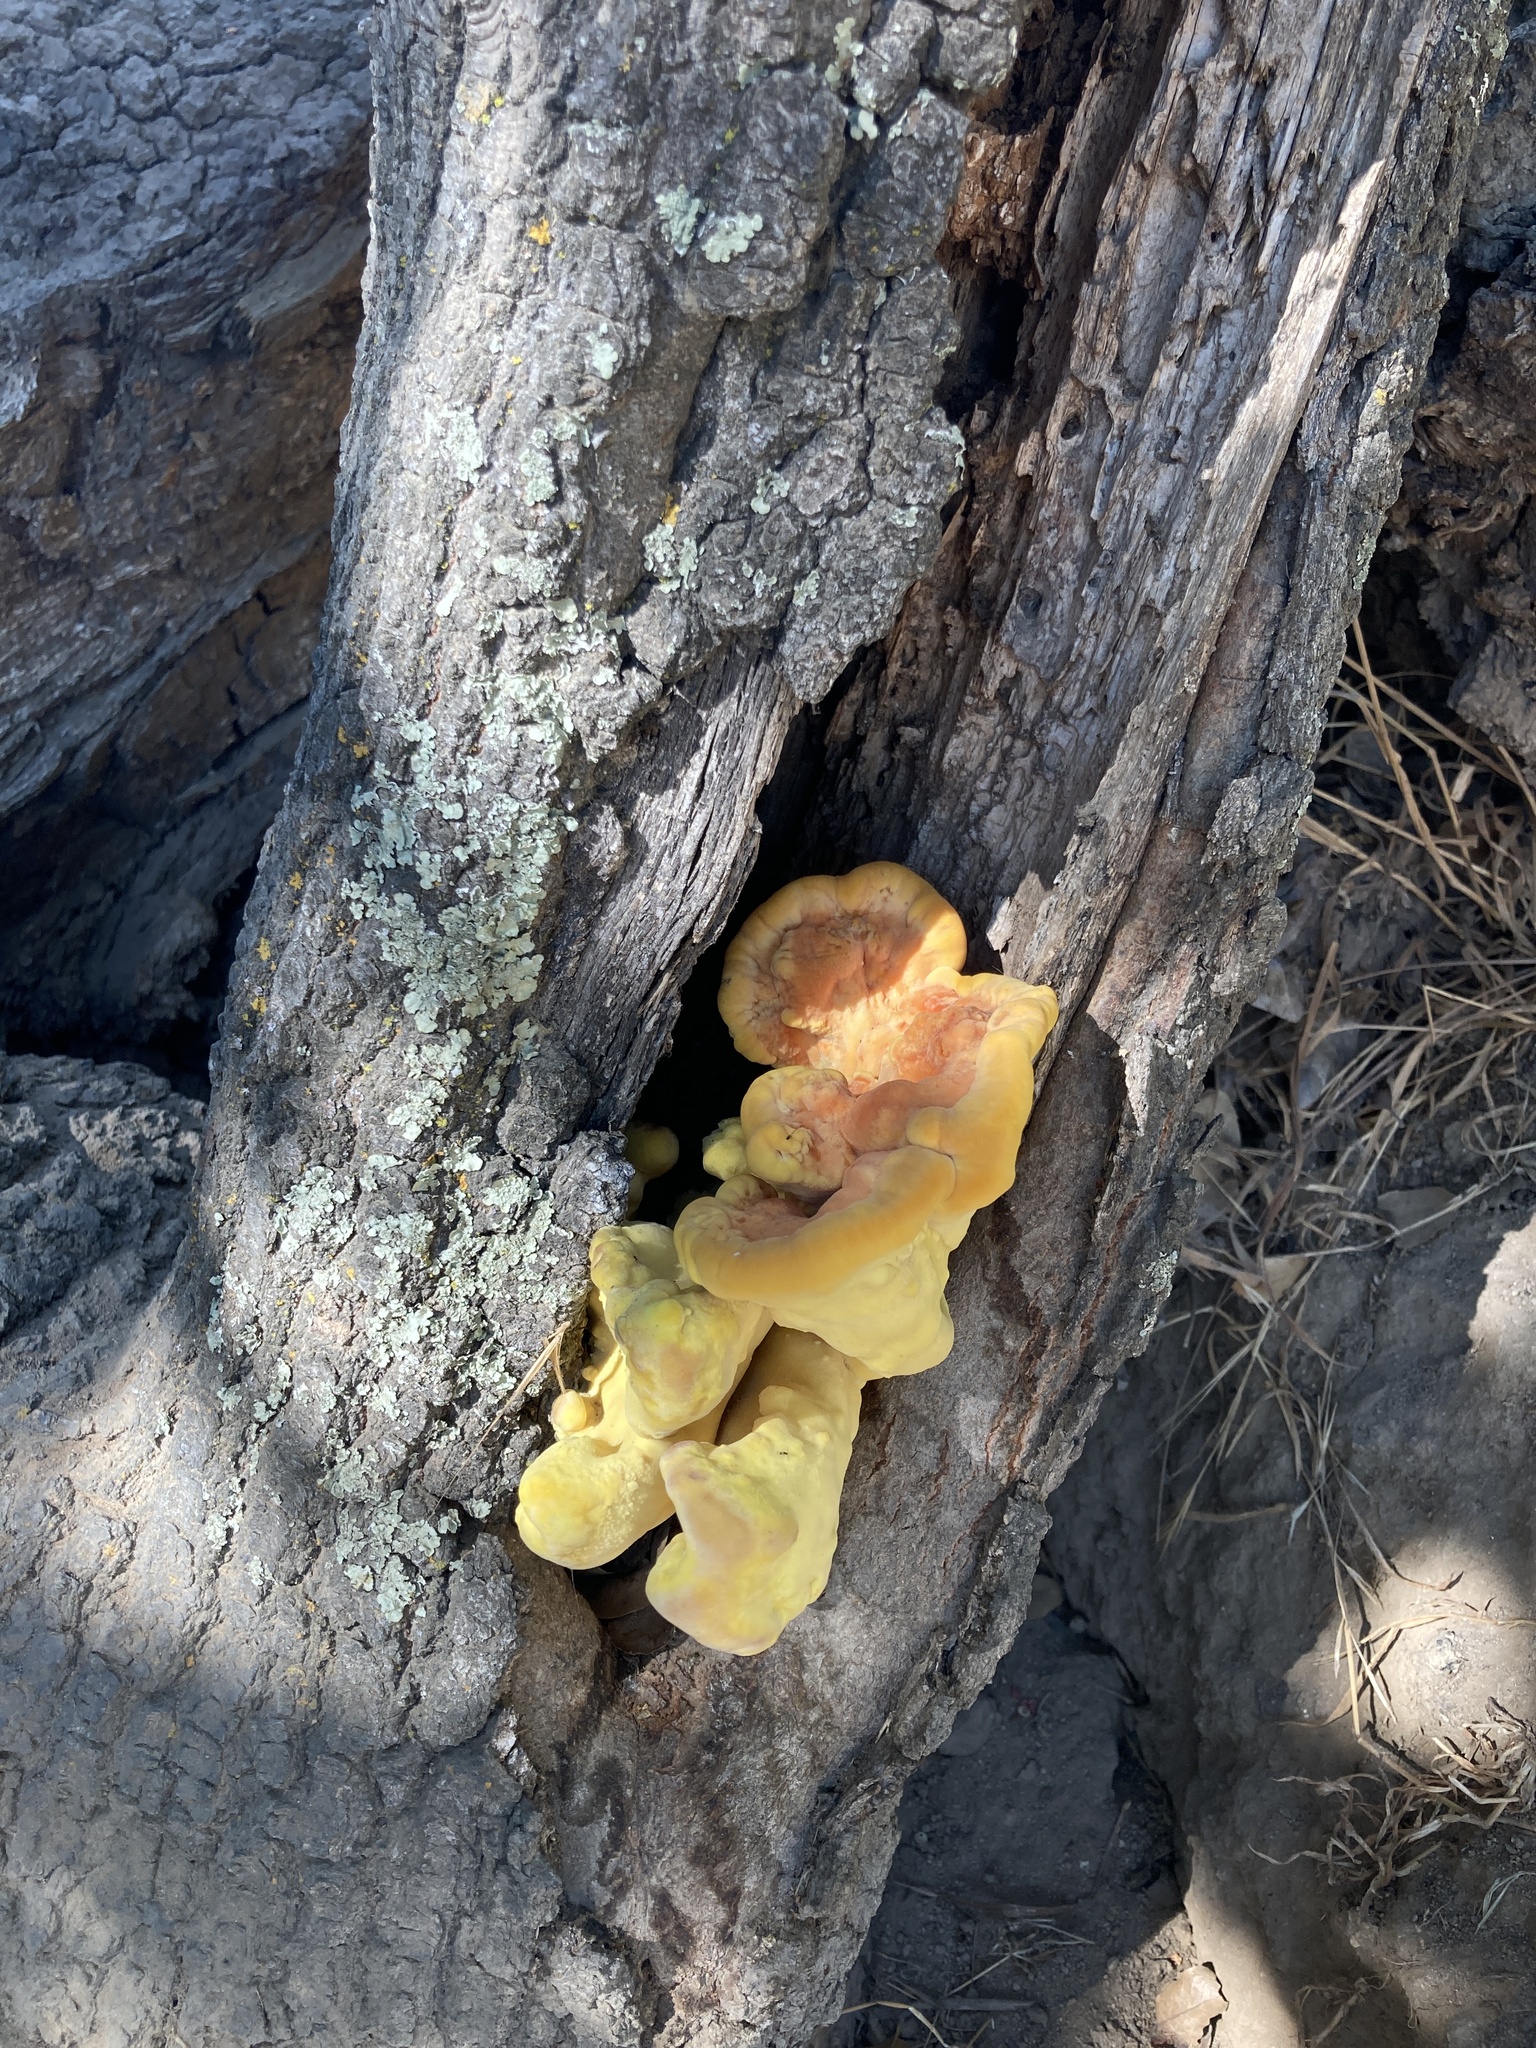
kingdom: Fungi
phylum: Basidiomycota
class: Agaricomycetes
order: Polyporales
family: Laetiporaceae
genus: Laetiporus
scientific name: Laetiporus gilbertsonii
